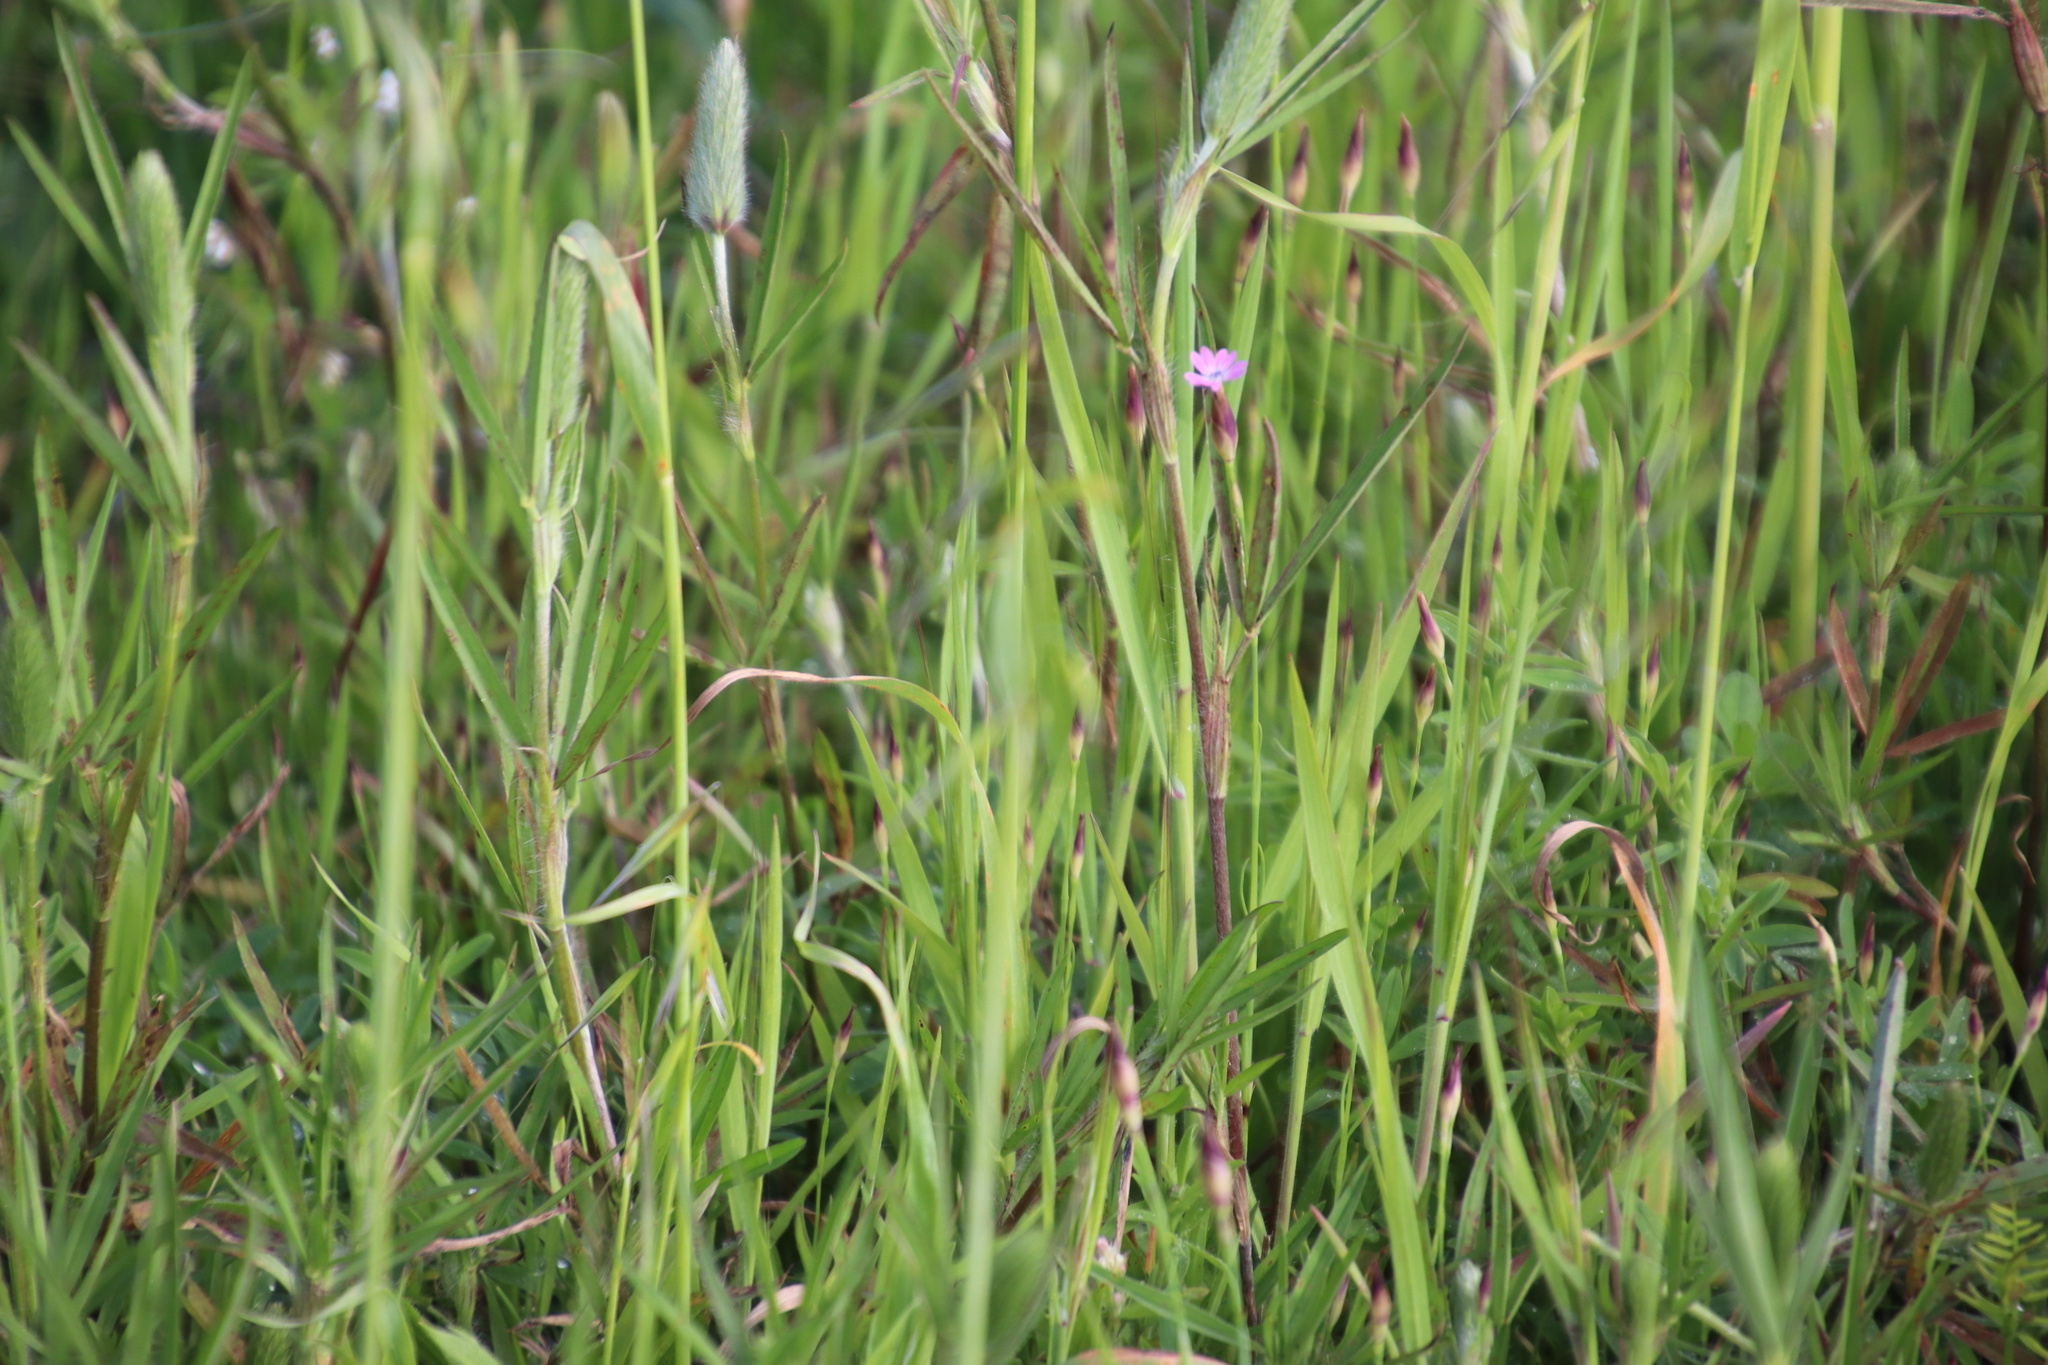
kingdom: Plantae
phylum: Tracheophyta
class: Magnoliopsida
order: Caryophyllales
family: Caryophyllaceae
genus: Petrorhagia
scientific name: Petrorhagia prolifera
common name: Proliferous pink
